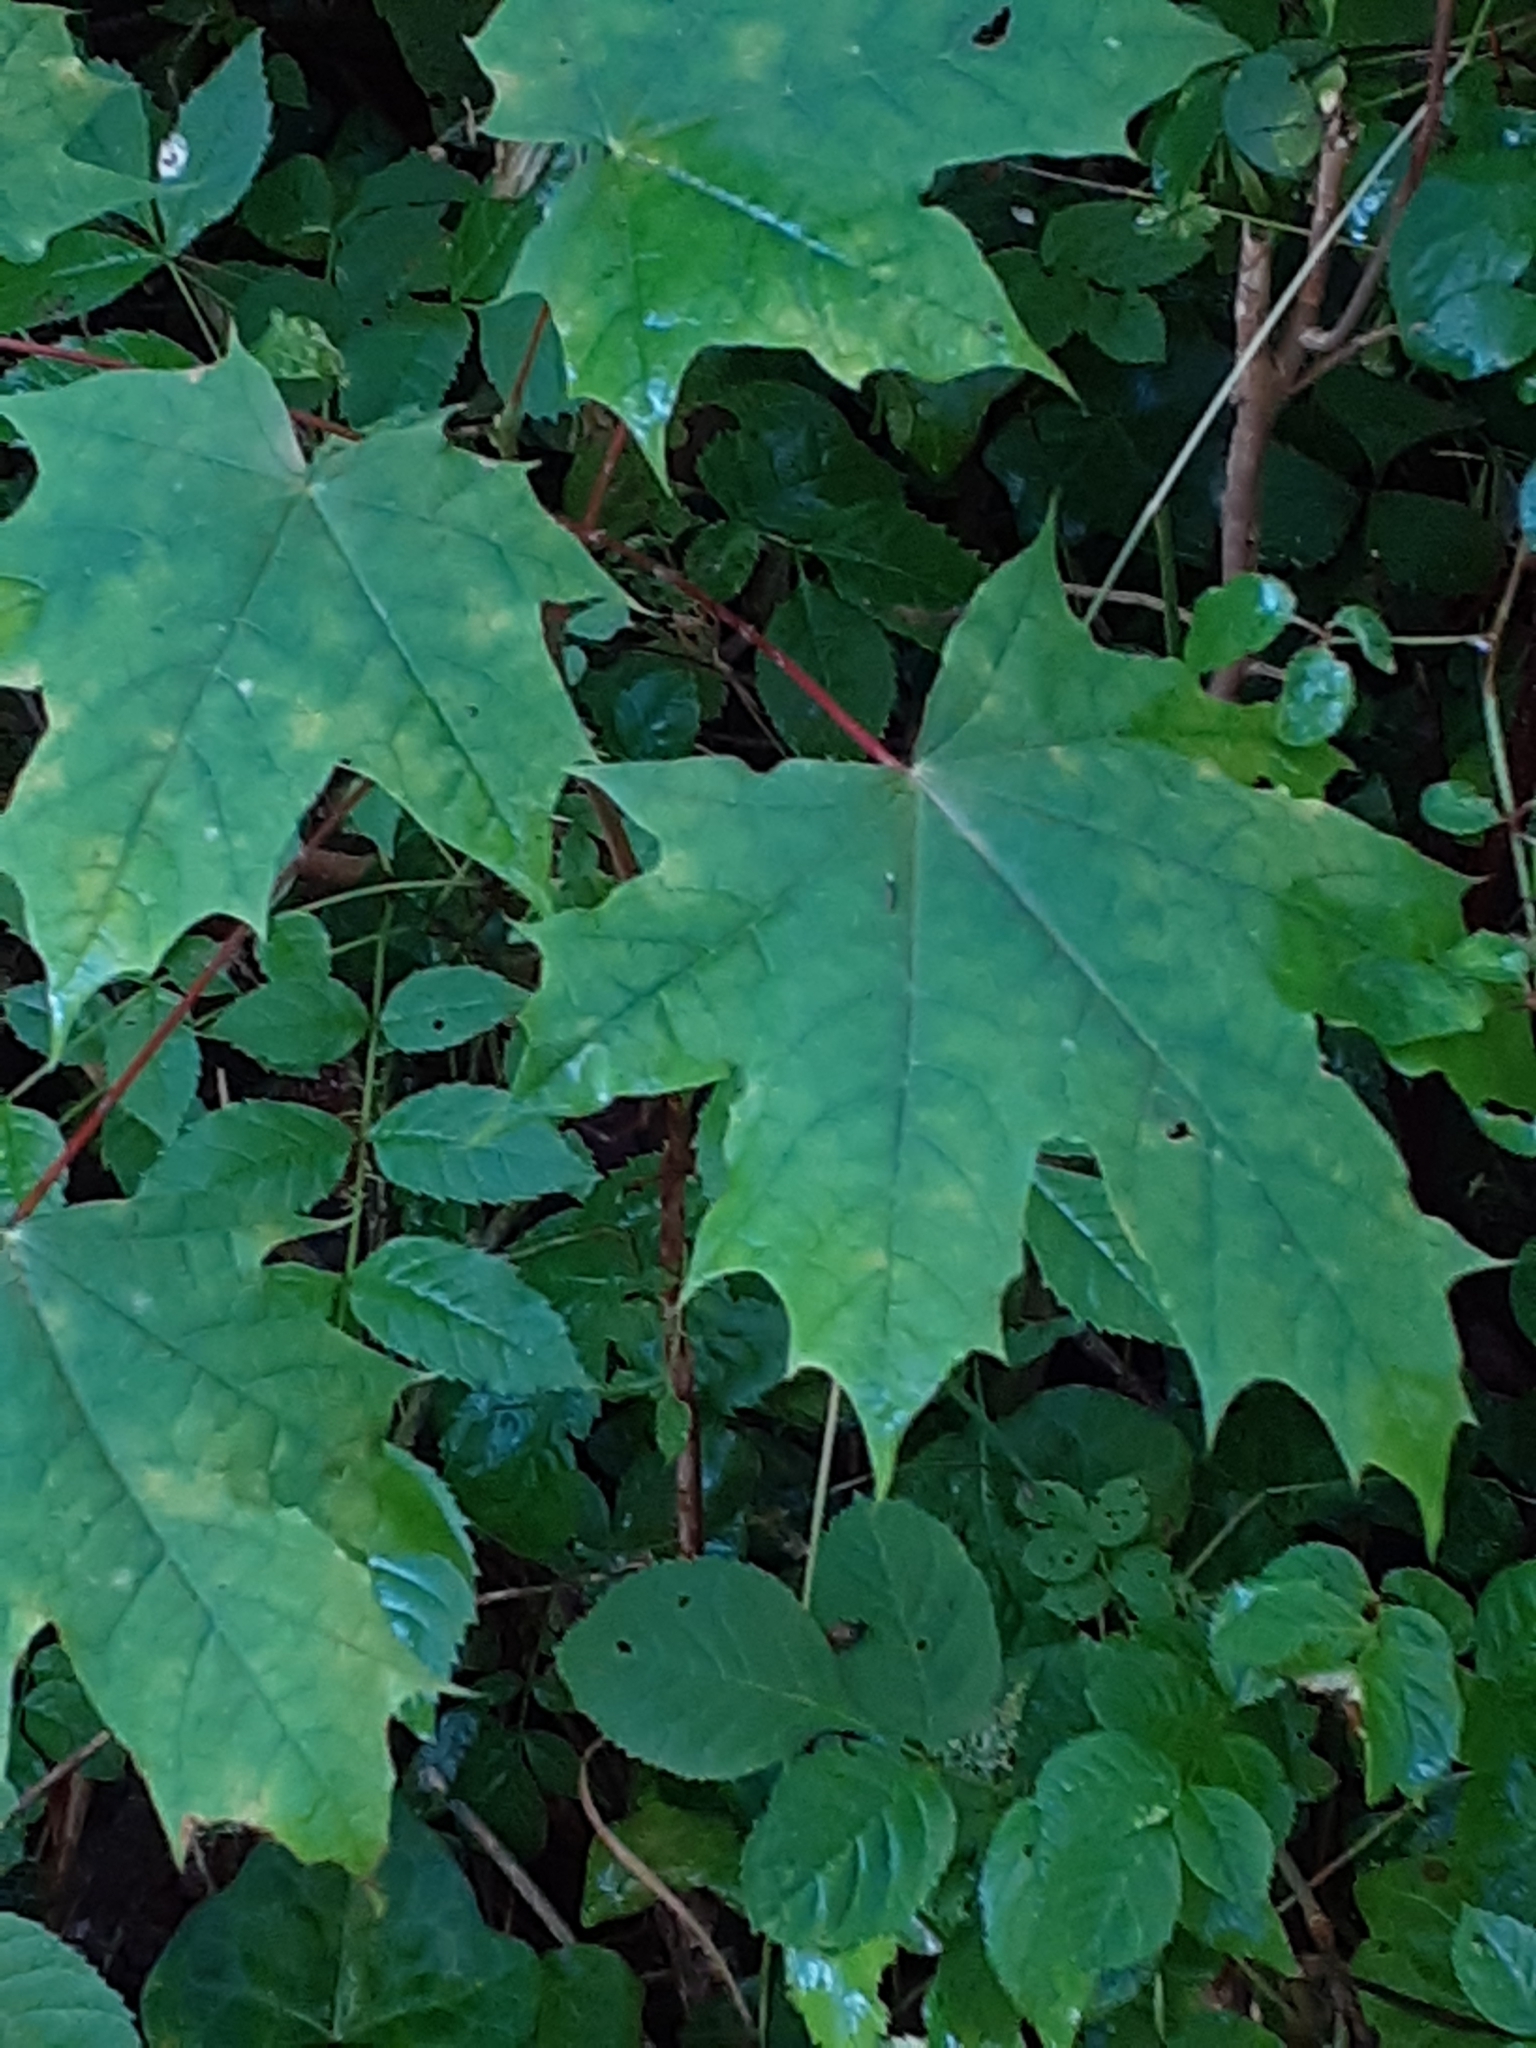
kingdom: Plantae
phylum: Tracheophyta
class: Magnoliopsida
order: Sapindales
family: Sapindaceae
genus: Acer
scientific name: Acer platanoides
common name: Norway maple
